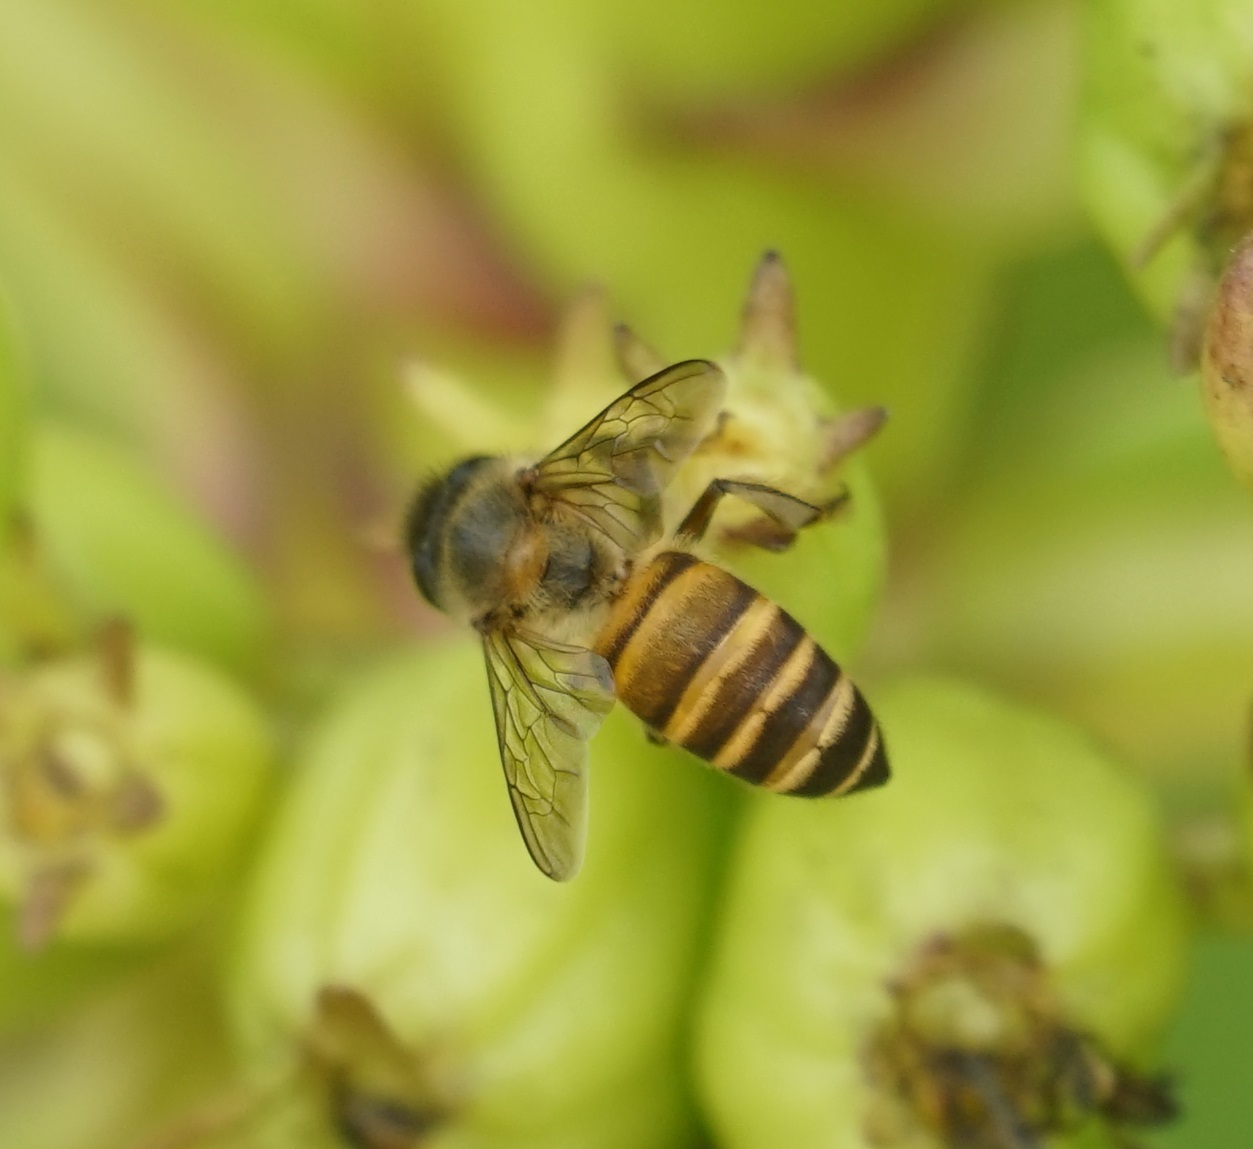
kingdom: Animalia
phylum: Arthropoda
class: Insecta
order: Hymenoptera
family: Apidae
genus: Apis
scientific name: Apis cerana
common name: Honey bee
